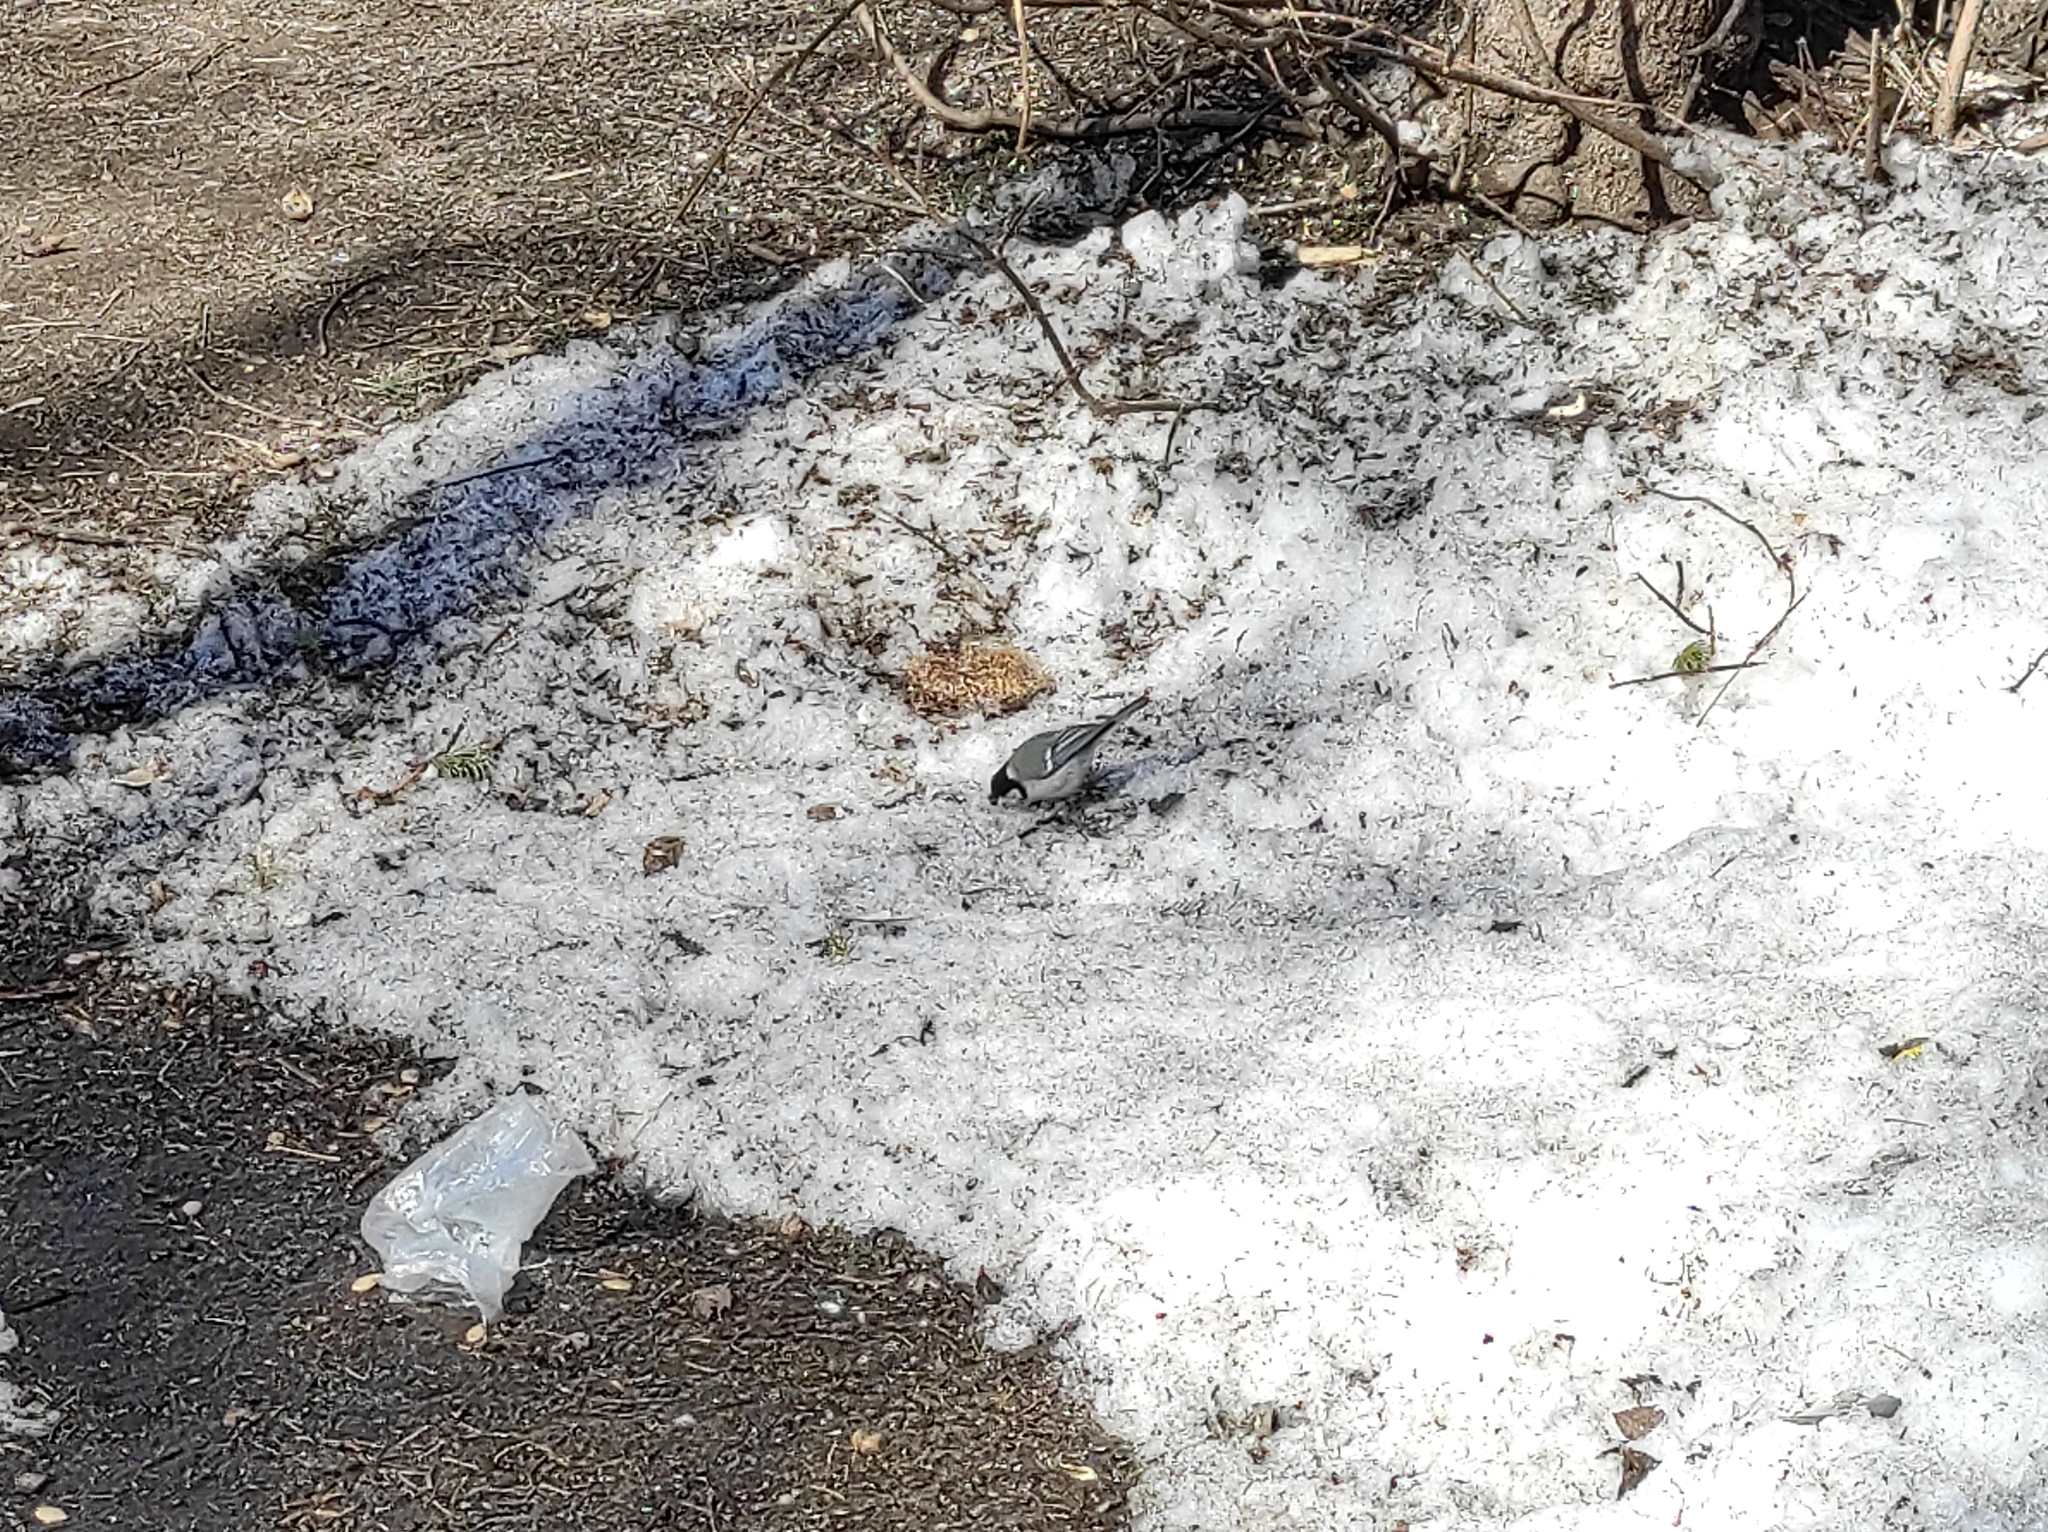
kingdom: Animalia
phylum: Chordata
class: Aves
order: Passeriformes
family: Paridae
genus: Parus
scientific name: Parus major
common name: Great tit
